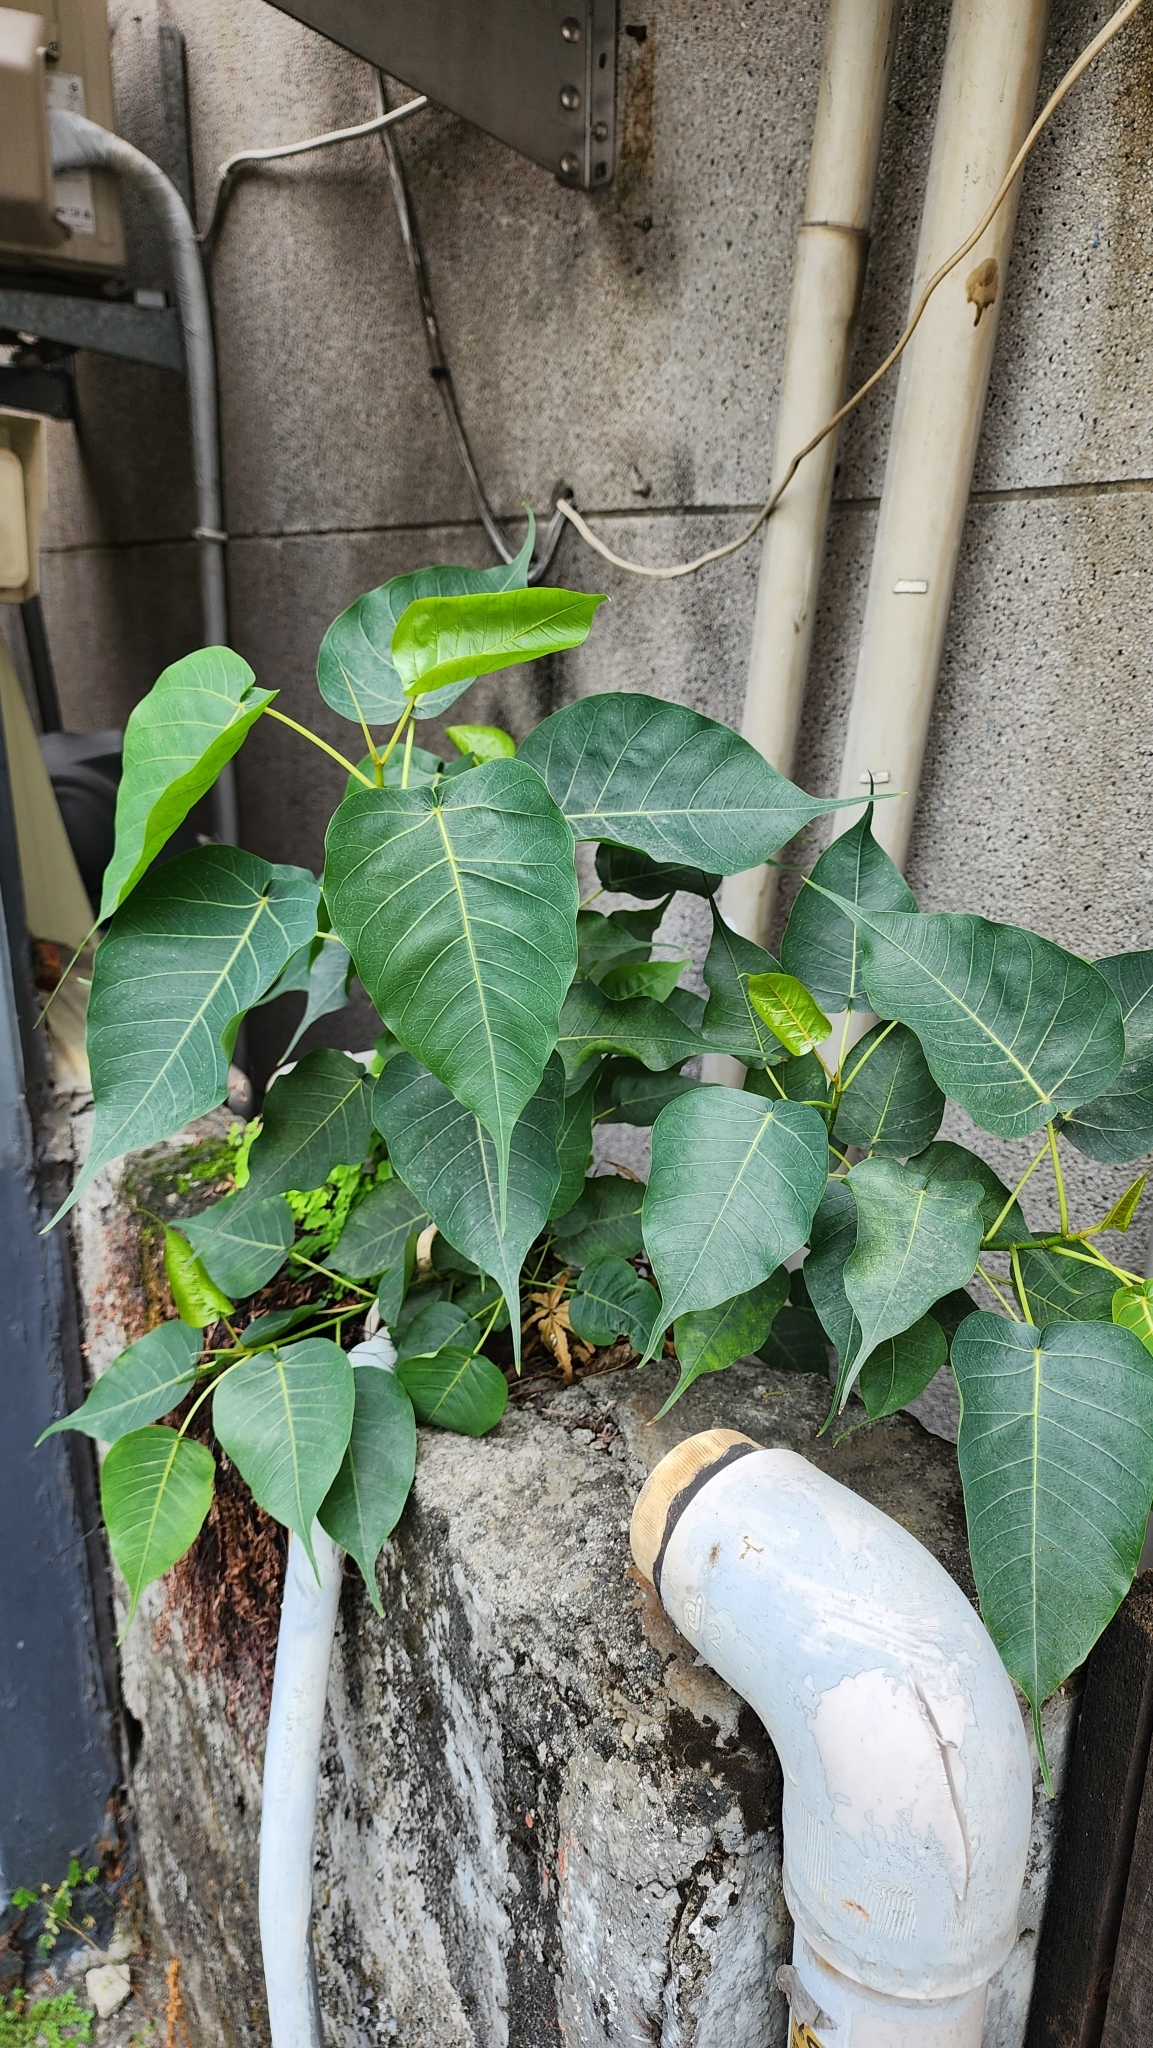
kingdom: Plantae
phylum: Tracheophyta
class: Magnoliopsida
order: Rosales
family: Moraceae
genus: Ficus
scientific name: Ficus religiosa
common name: Bodhi tree
